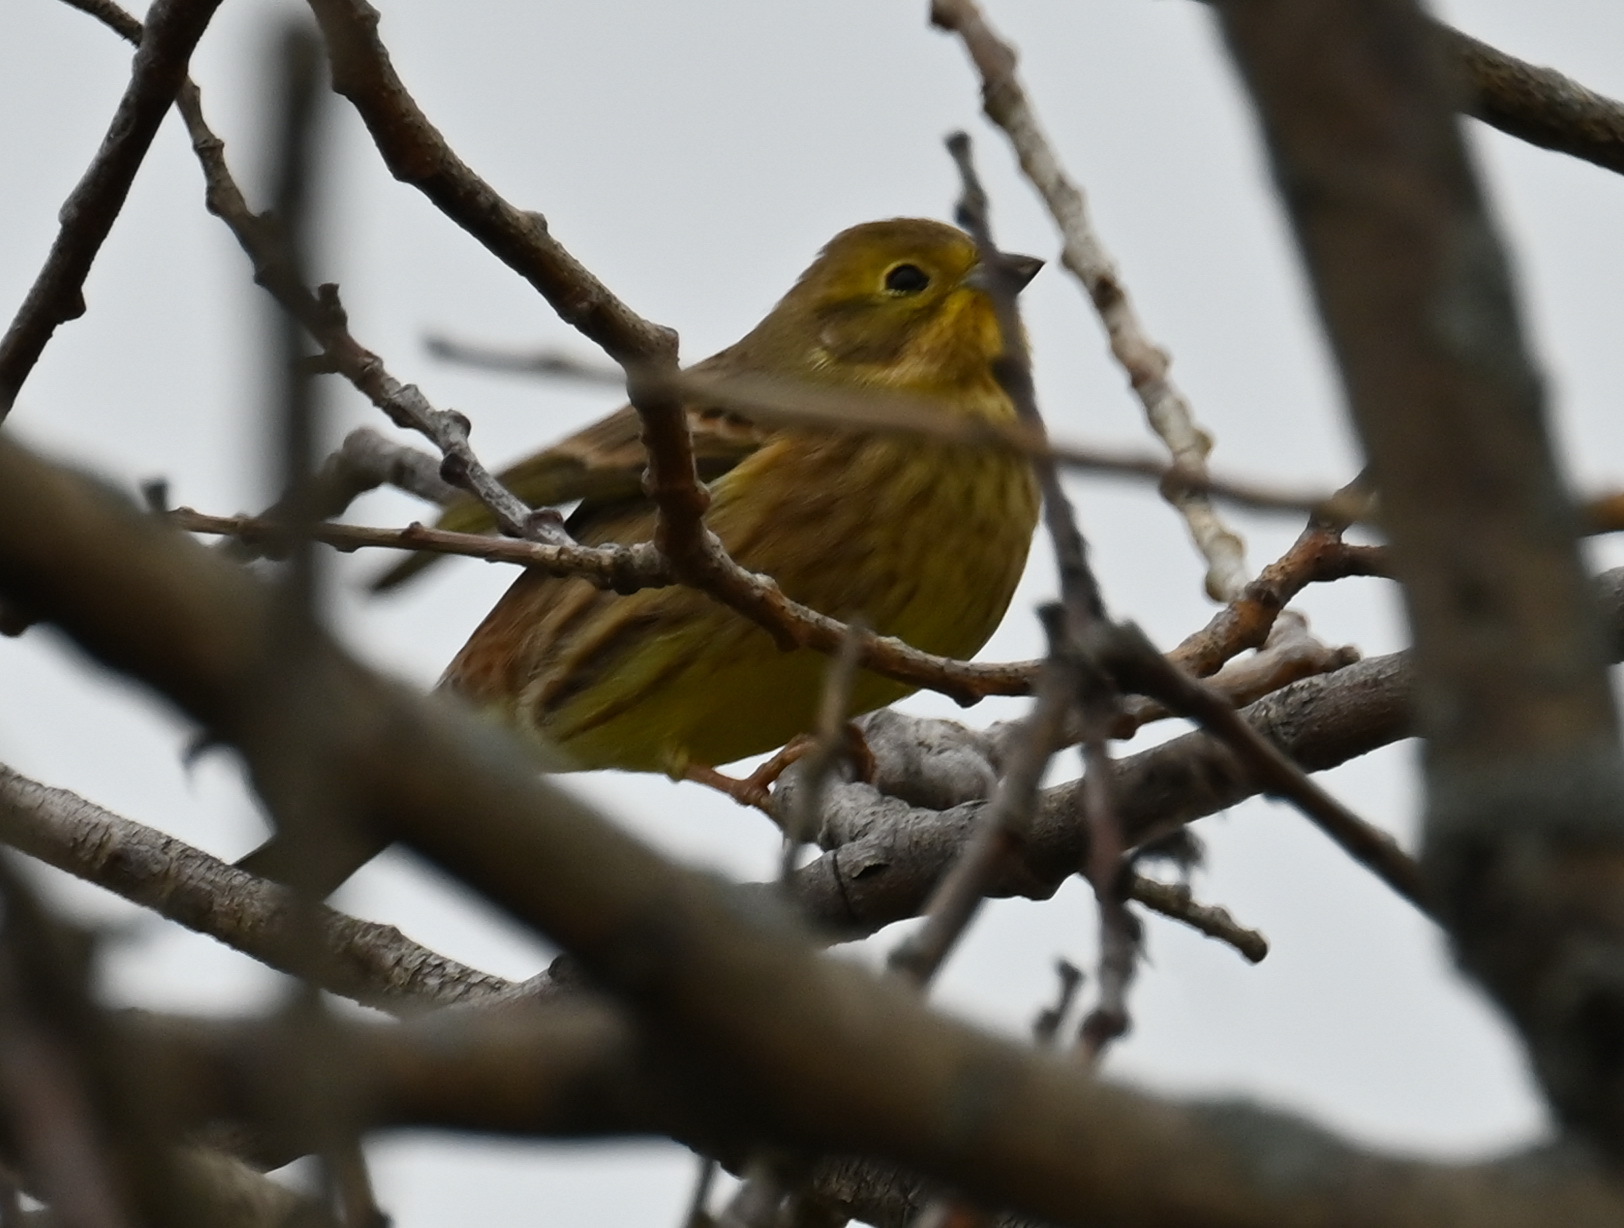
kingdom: Animalia
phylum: Chordata
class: Aves
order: Passeriformes
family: Emberizidae
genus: Emberiza
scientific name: Emberiza citrinella
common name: Yellowhammer
